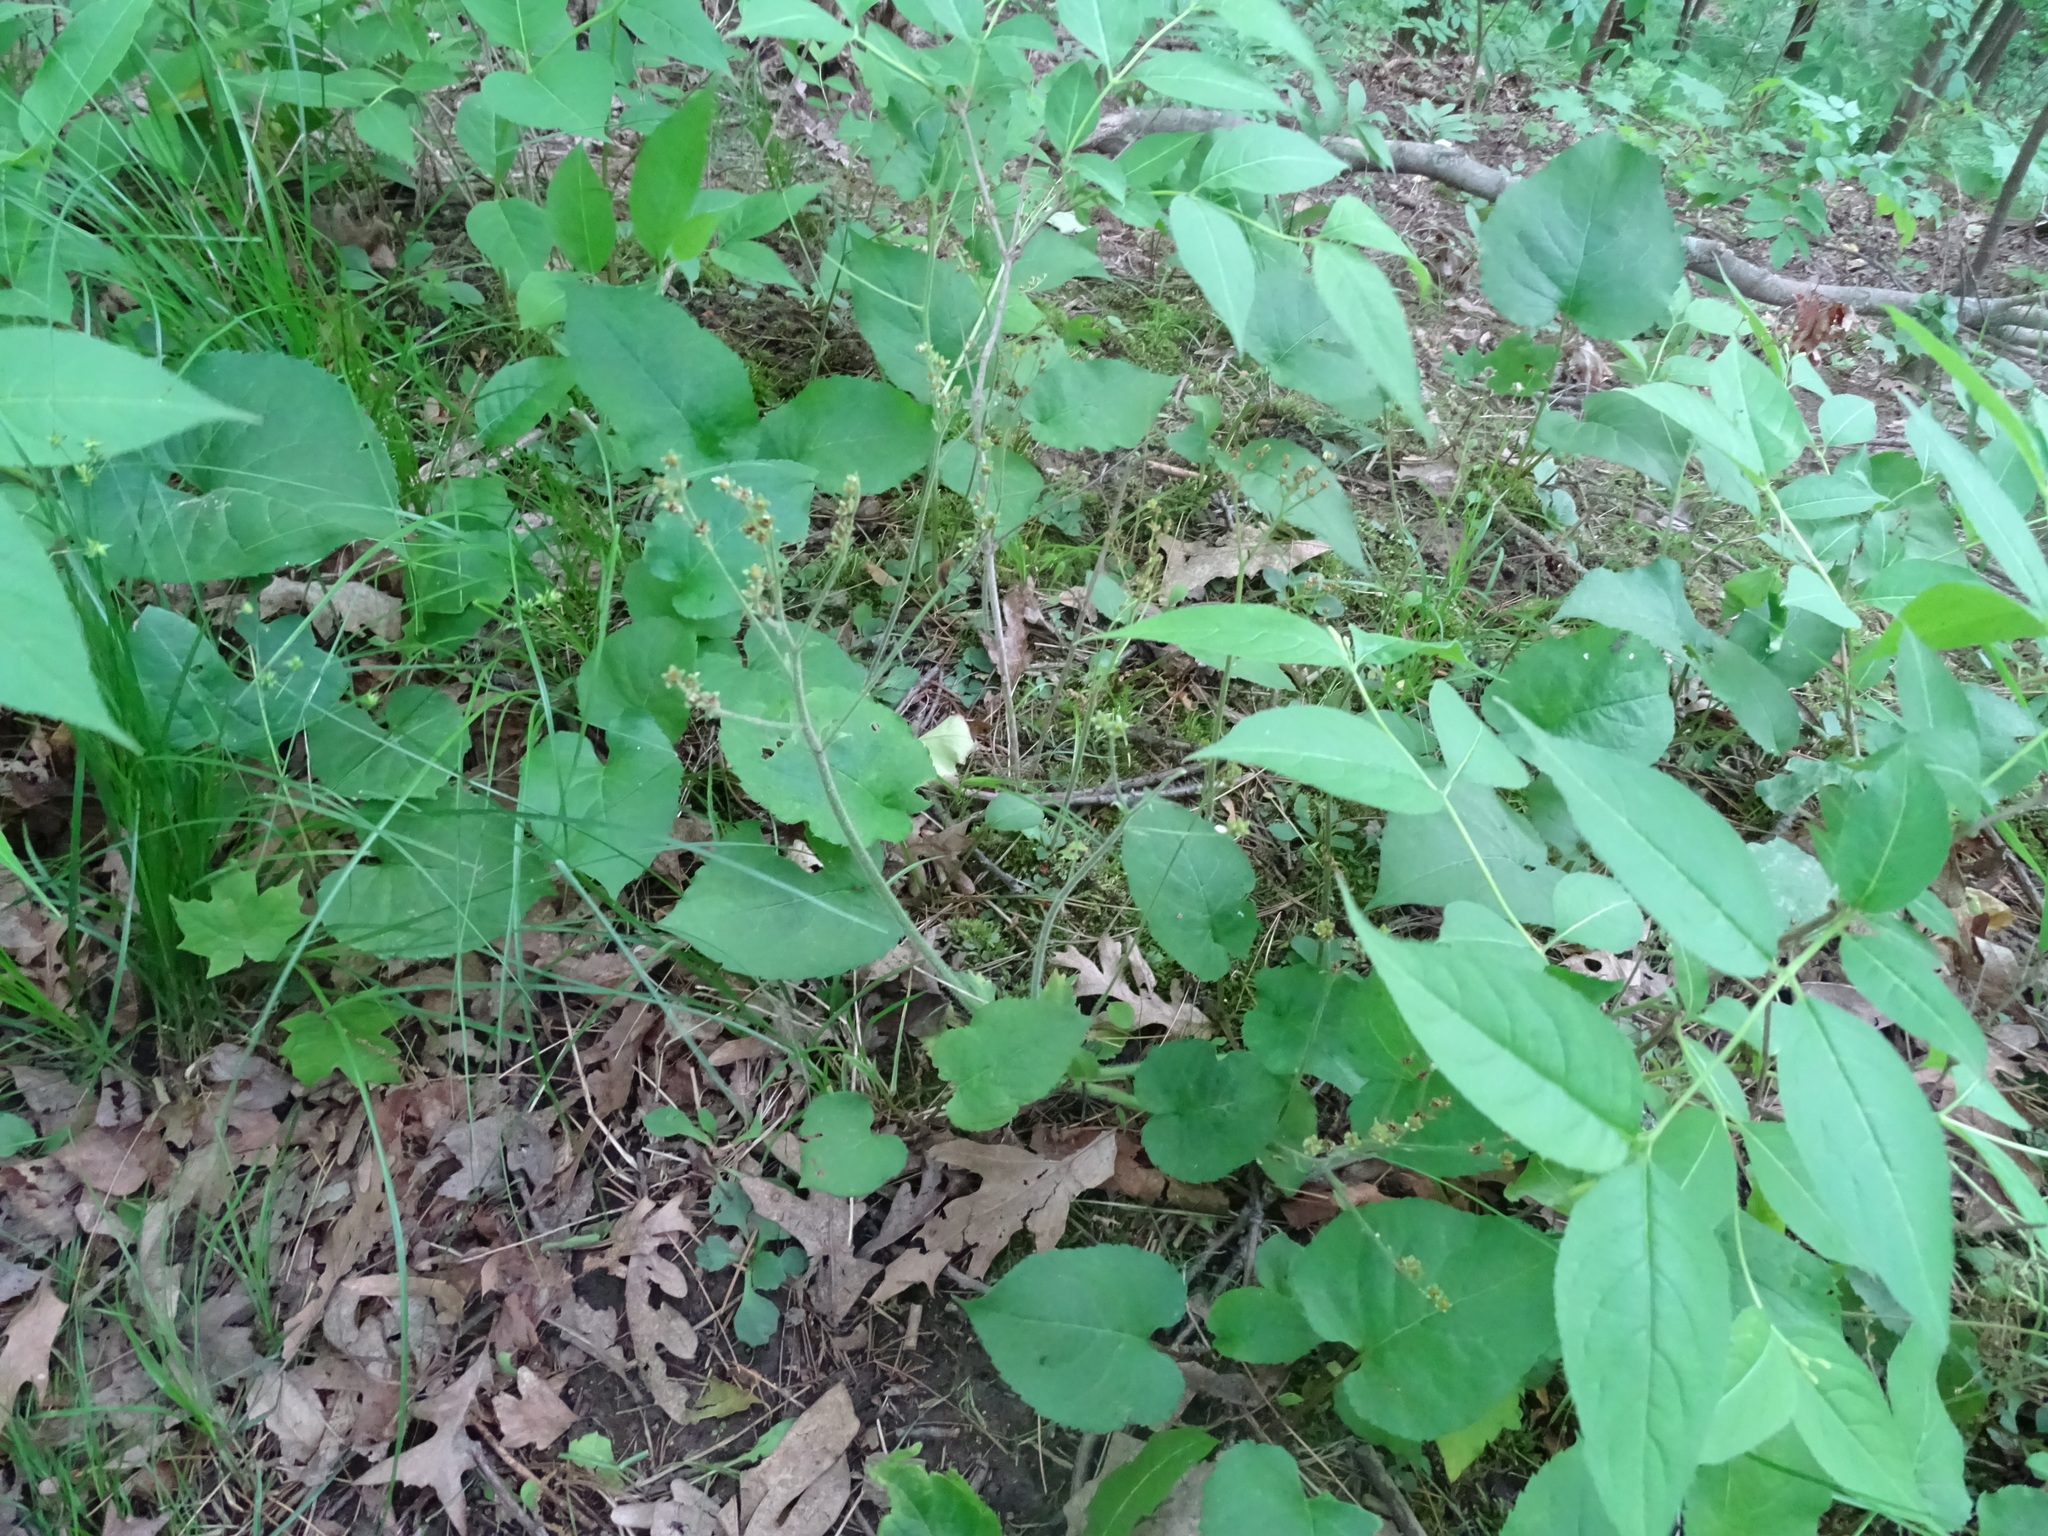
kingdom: Plantae
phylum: Tracheophyta
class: Magnoliopsida
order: Saxifragales
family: Saxifragaceae
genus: Micranthes
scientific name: Micranthes virginiensis
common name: Early saxifrage
